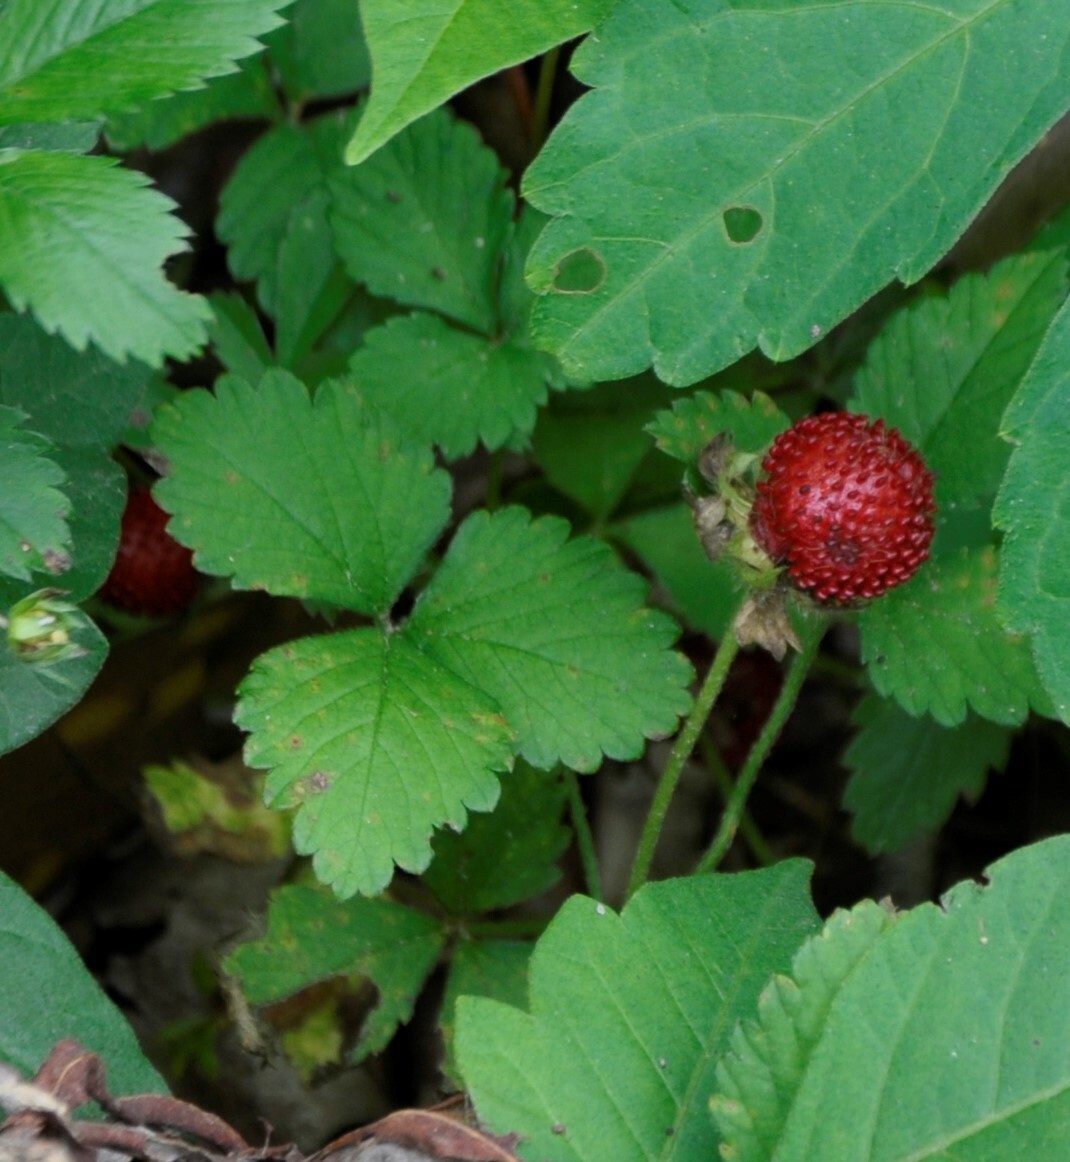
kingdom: Plantae
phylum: Tracheophyta
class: Magnoliopsida
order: Rosales
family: Rosaceae
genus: Potentilla
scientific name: Potentilla indica
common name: Yellow-flowered strawberry
